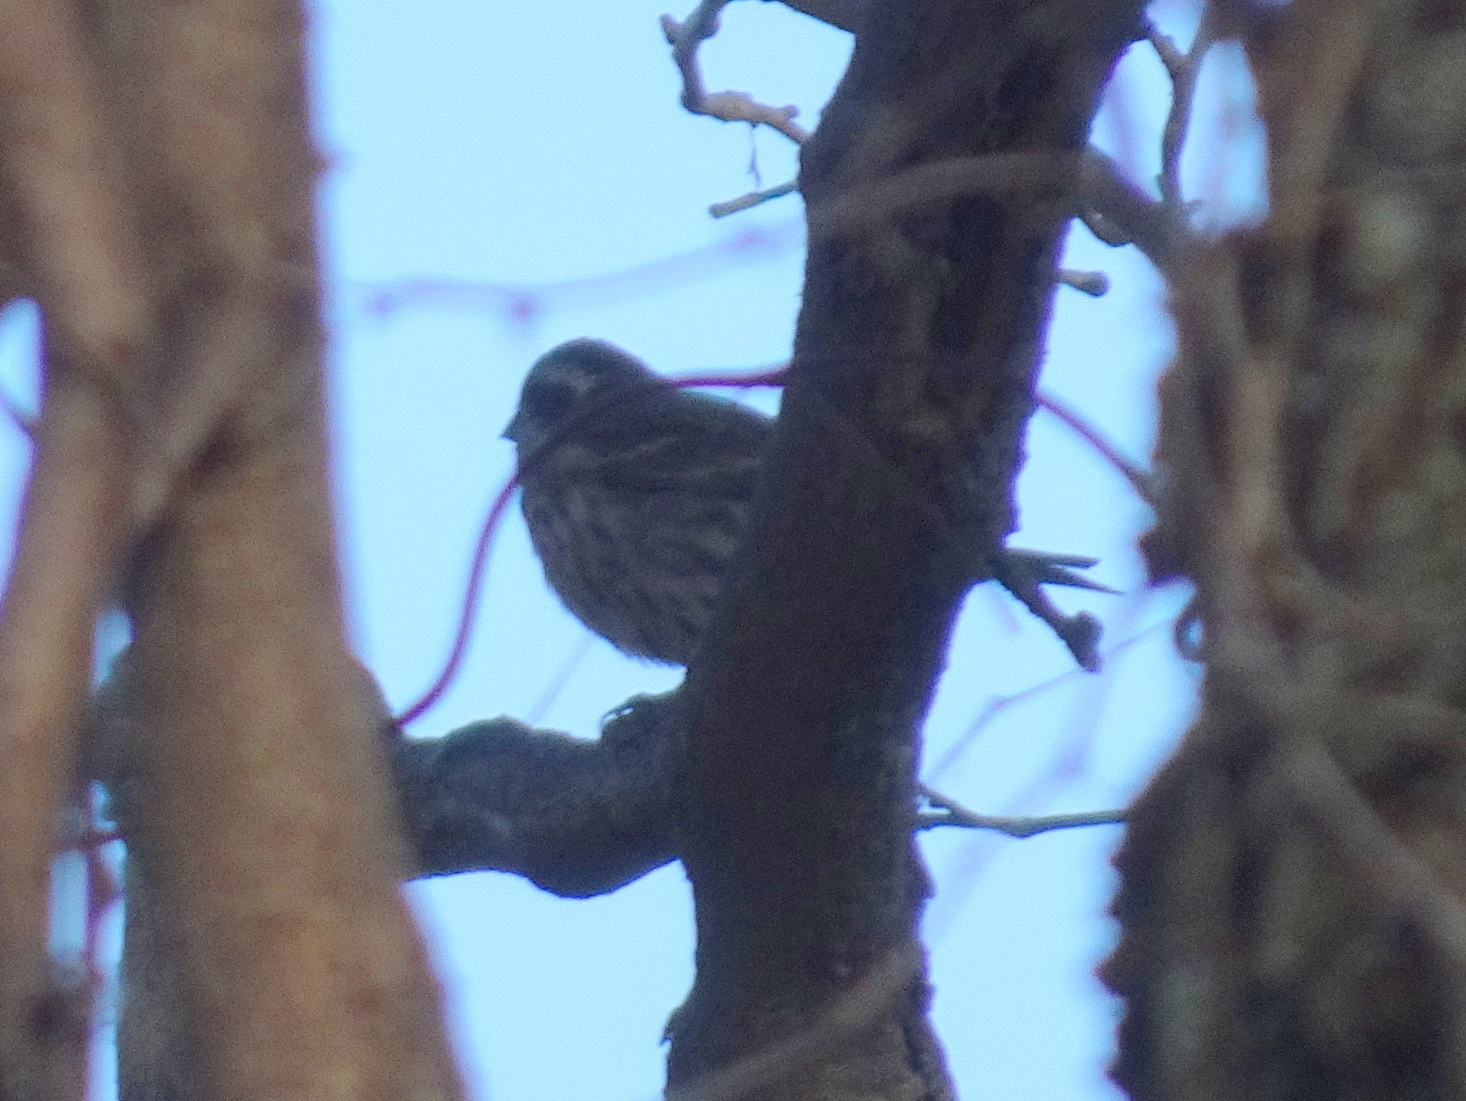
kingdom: Animalia
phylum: Chordata
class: Aves
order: Passeriformes
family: Fringillidae
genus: Haemorhous
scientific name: Haemorhous purpureus
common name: Purple finch
